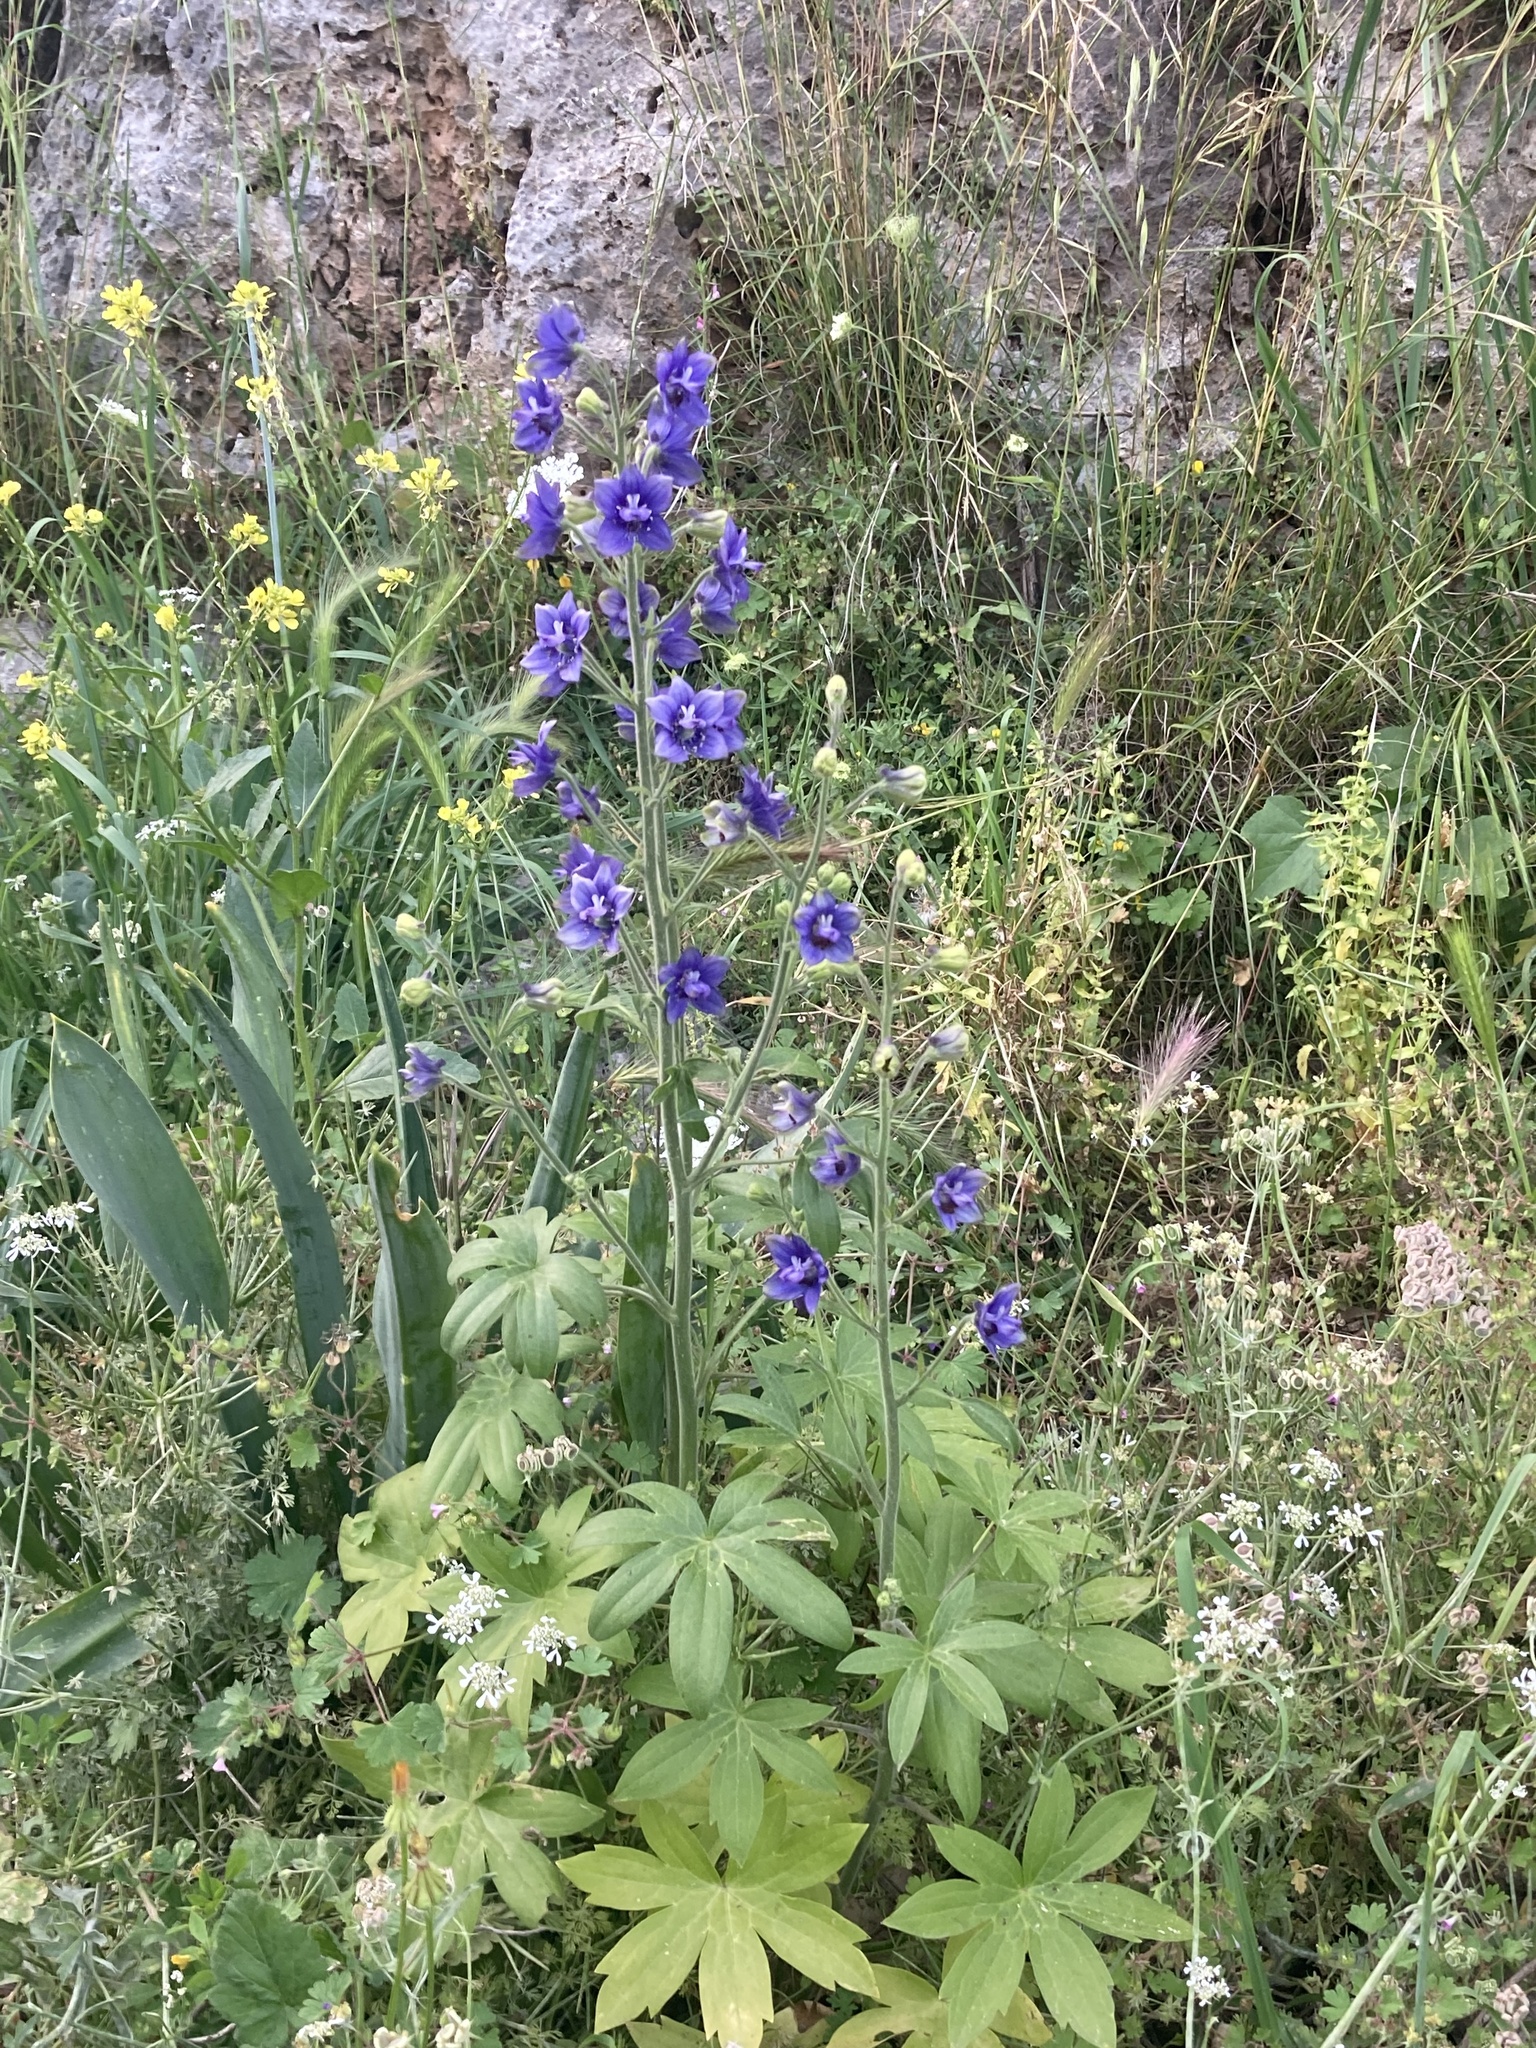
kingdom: Plantae
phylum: Tracheophyta
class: Magnoliopsida
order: Ranunculales
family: Ranunculaceae
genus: Staphisagria
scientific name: Staphisagria macrosperma
